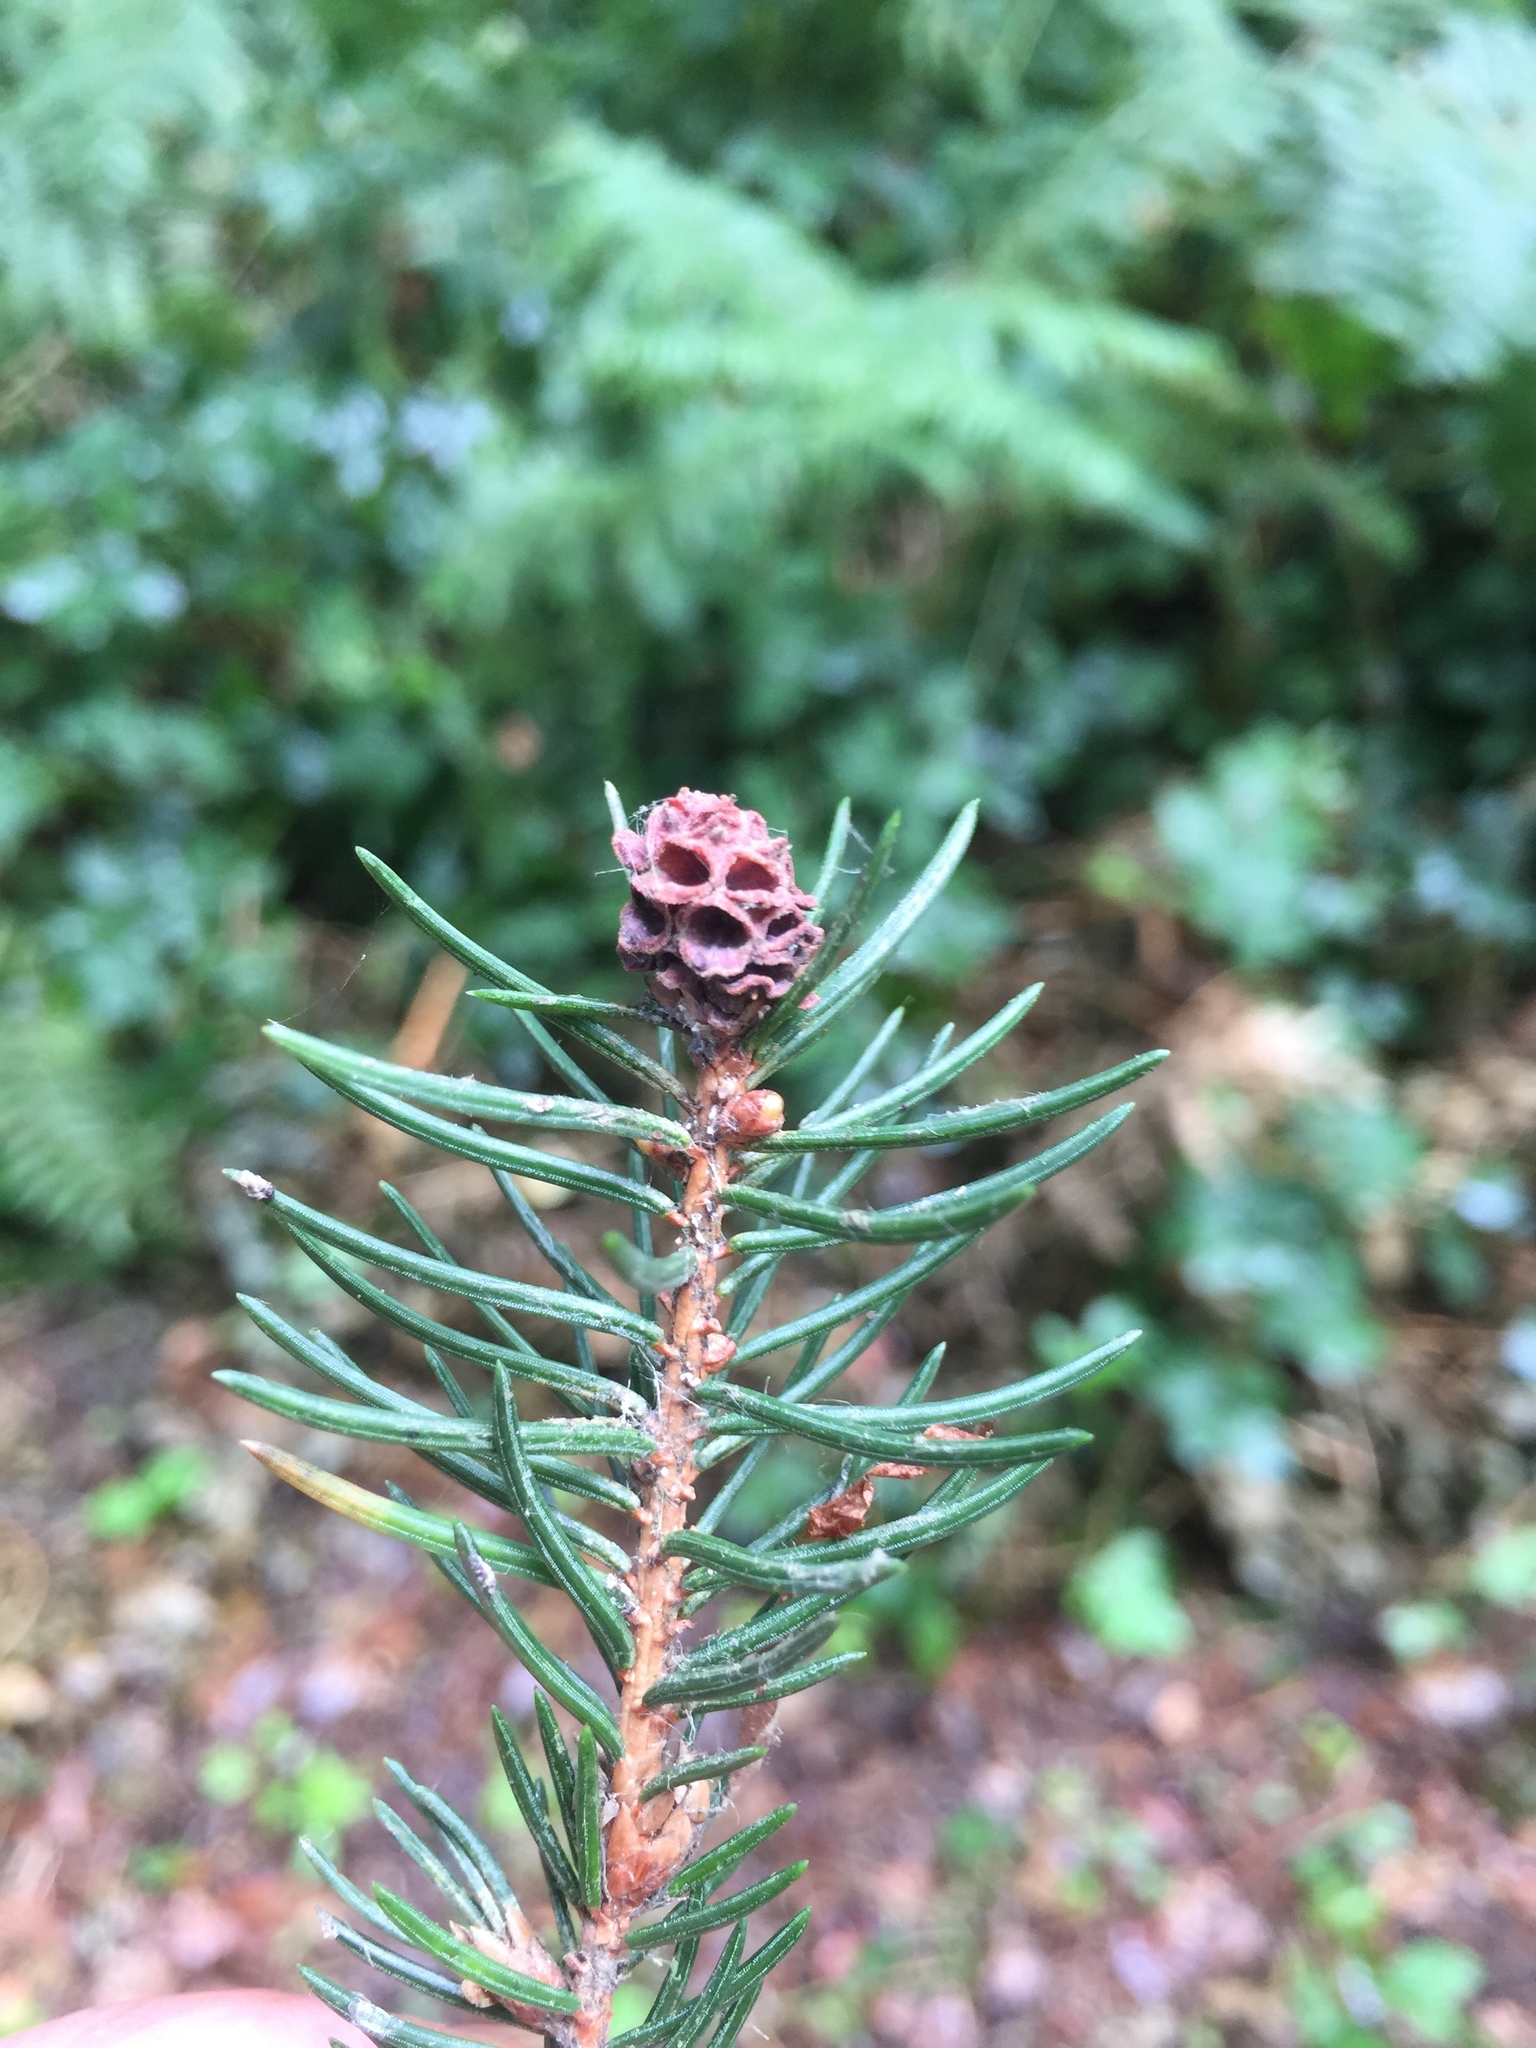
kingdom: Animalia
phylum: Arthropoda
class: Insecta
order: Hemiptera
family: Adelgidae
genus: Adelges
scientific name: Adelges laricis
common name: Pale spruce gall adelgid
